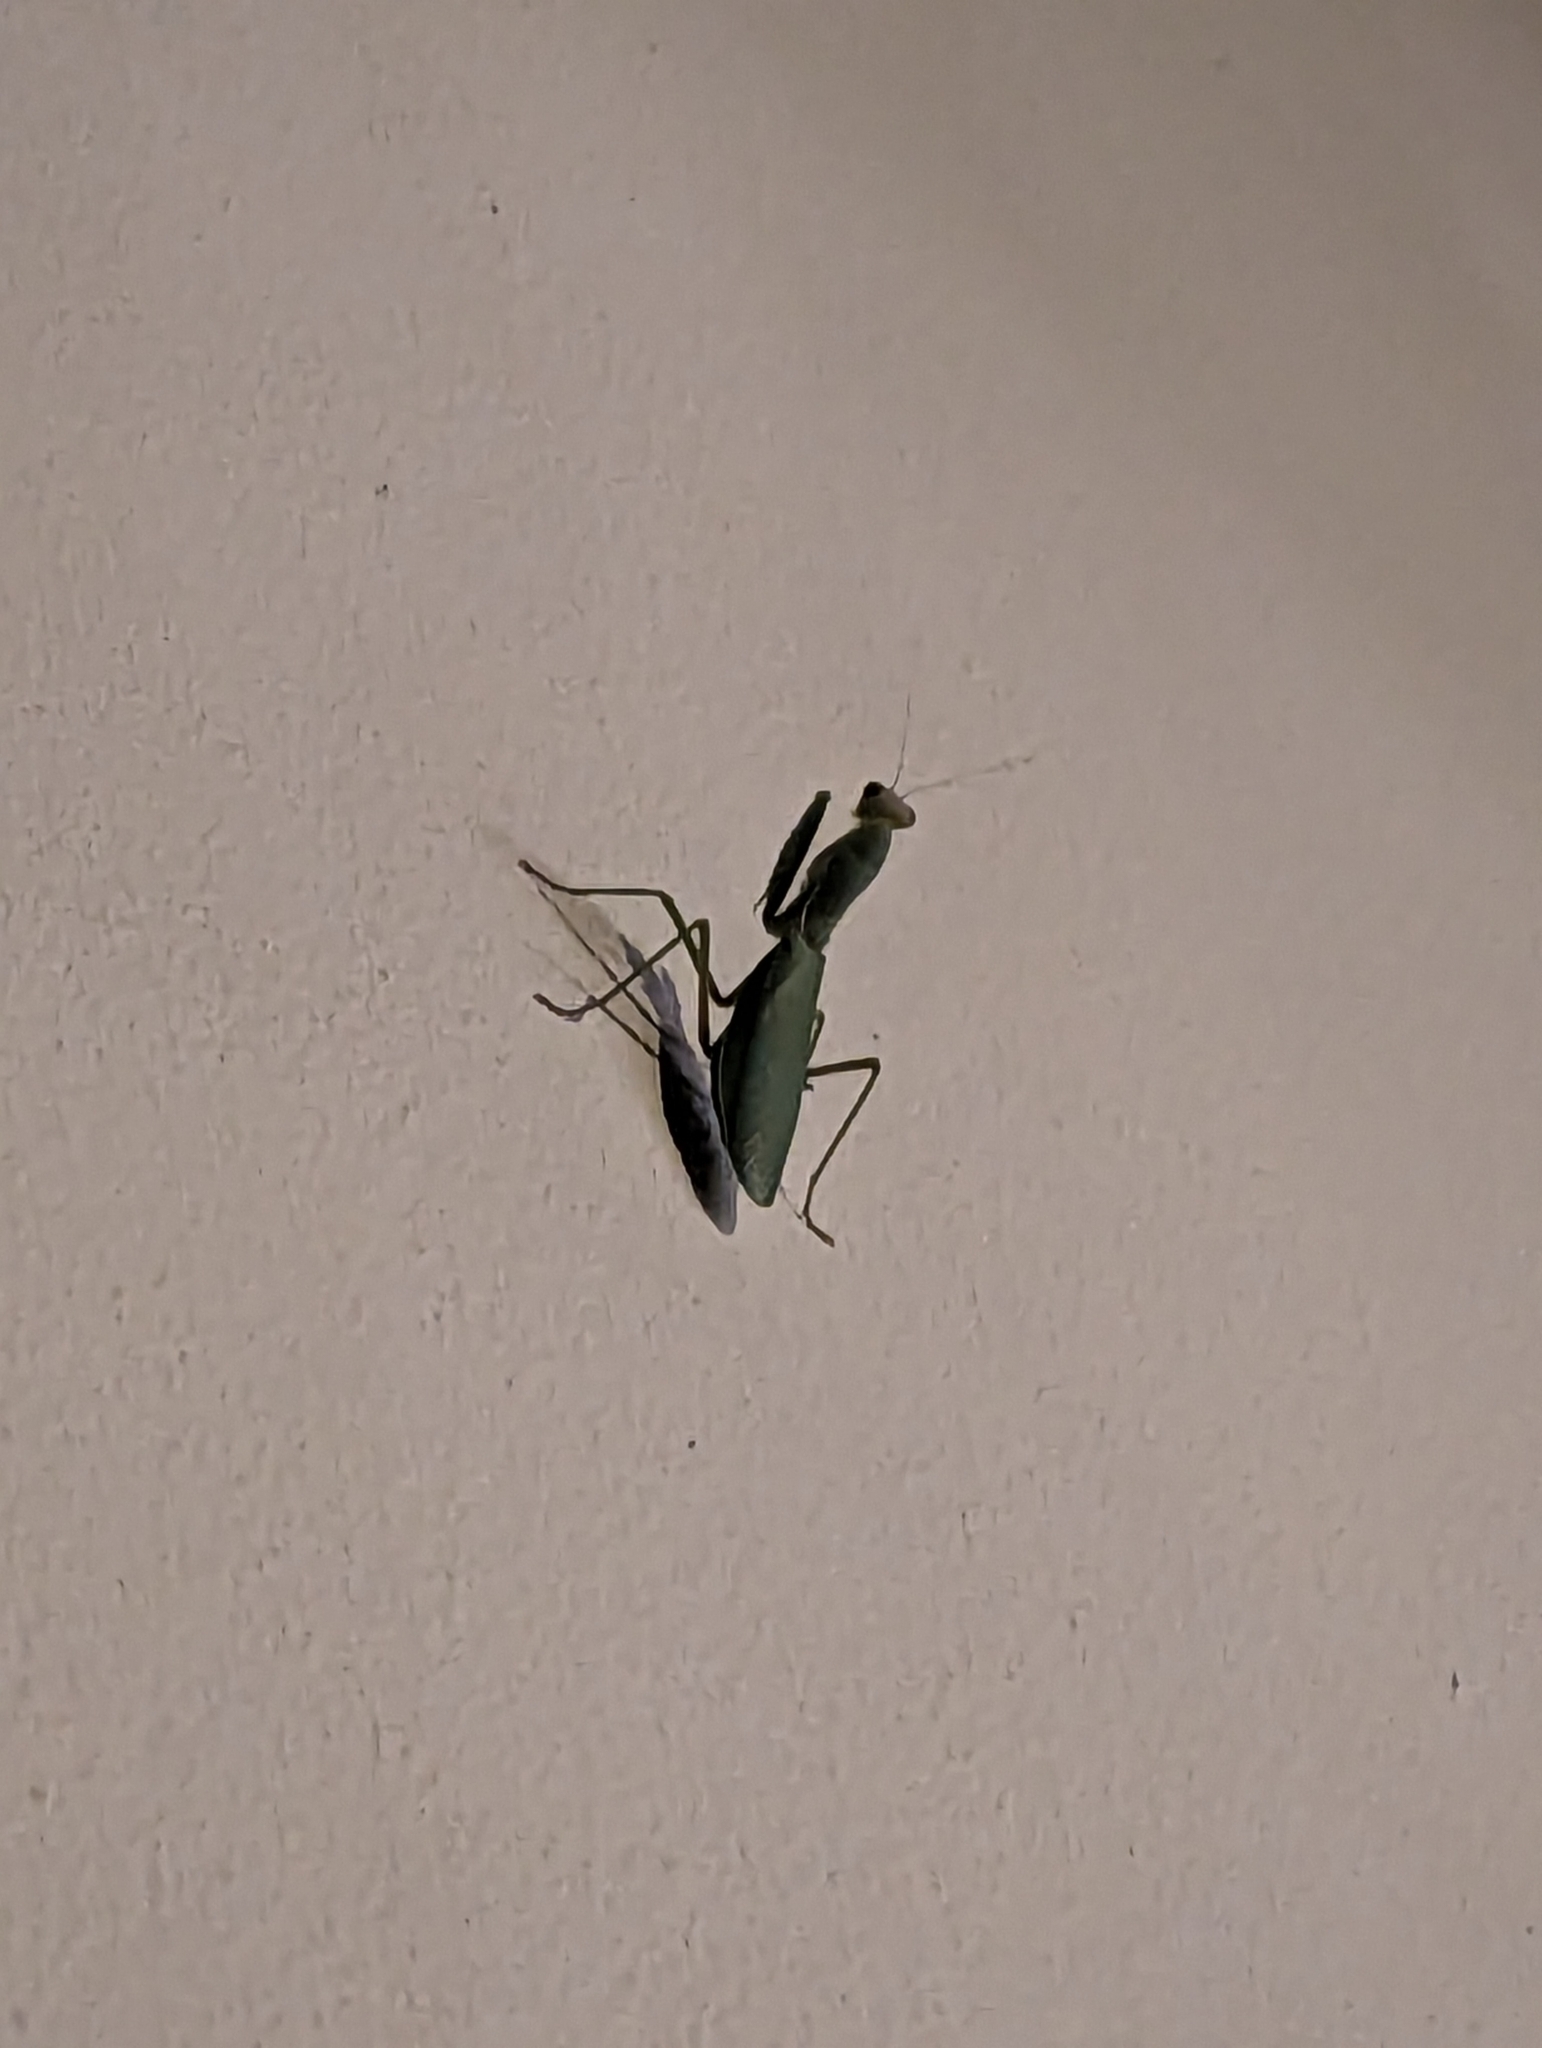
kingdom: Animalia
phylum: Arthropoda
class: Insecta
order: Mantodea
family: Mantidae
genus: Hierodula
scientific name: Hierodula transcaucasica
